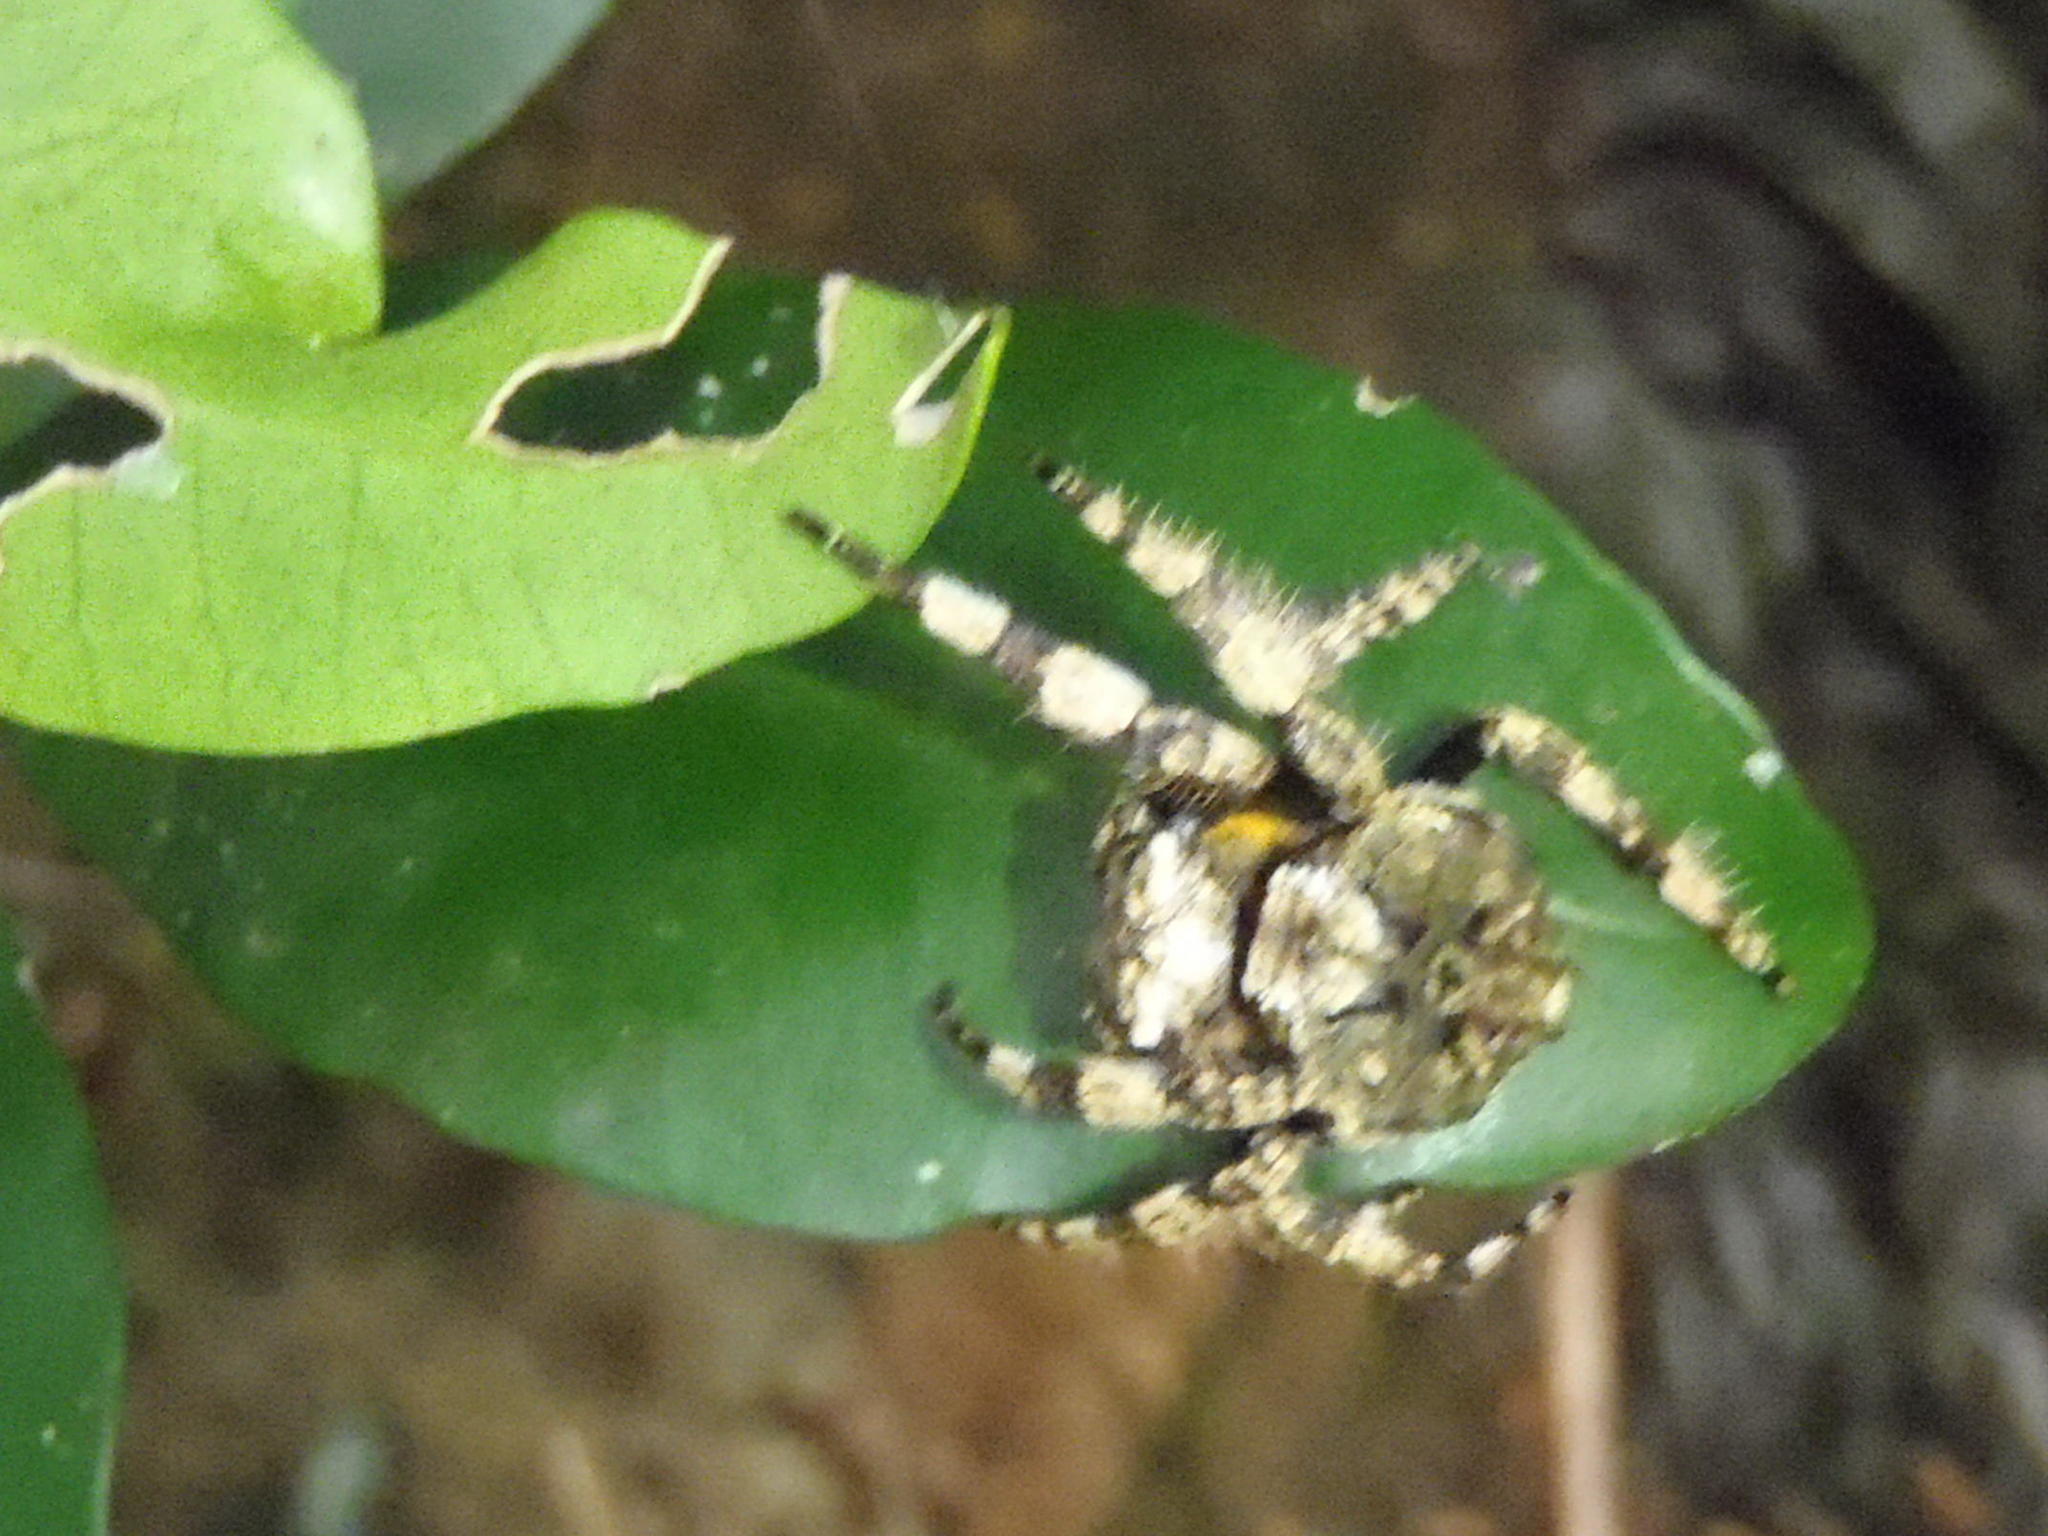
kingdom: Animalia
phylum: Arthropoda
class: Arachnida
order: Araneae
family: Araneidae
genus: Caerostris
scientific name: Caerostris sexcuspidata
